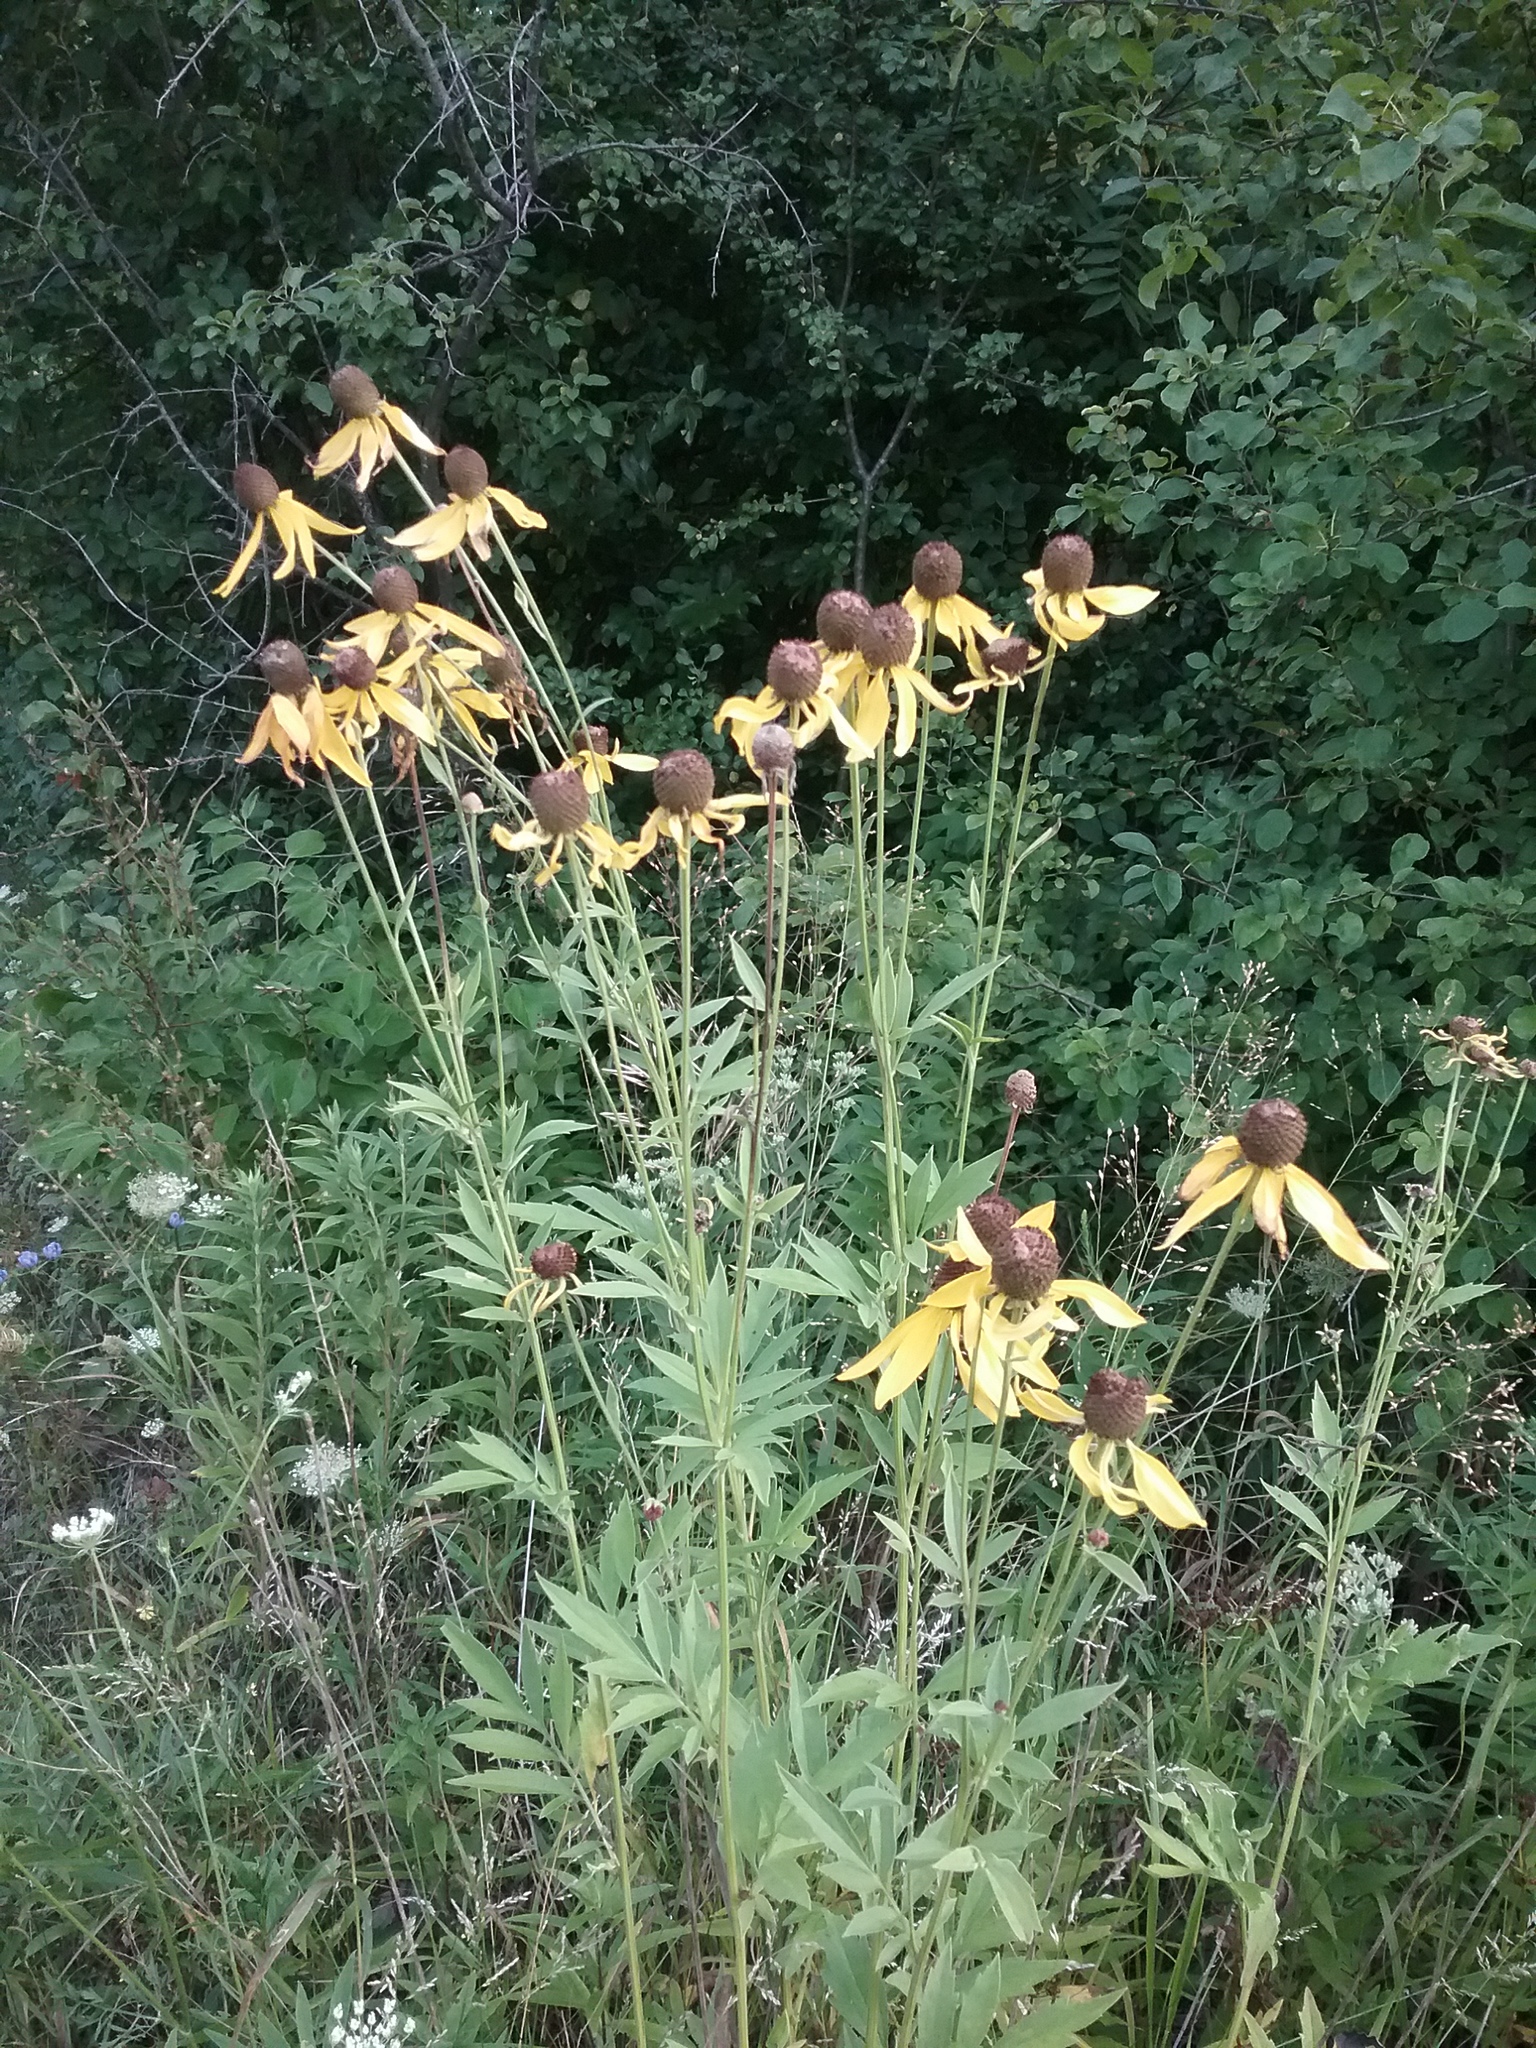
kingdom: Plantae
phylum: Tracheophyta
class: Magnoliopsida
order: Asterales
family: Asteraceae
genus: Ratibida
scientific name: Ratibida pinnata
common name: Drooping prairie-coneflower
